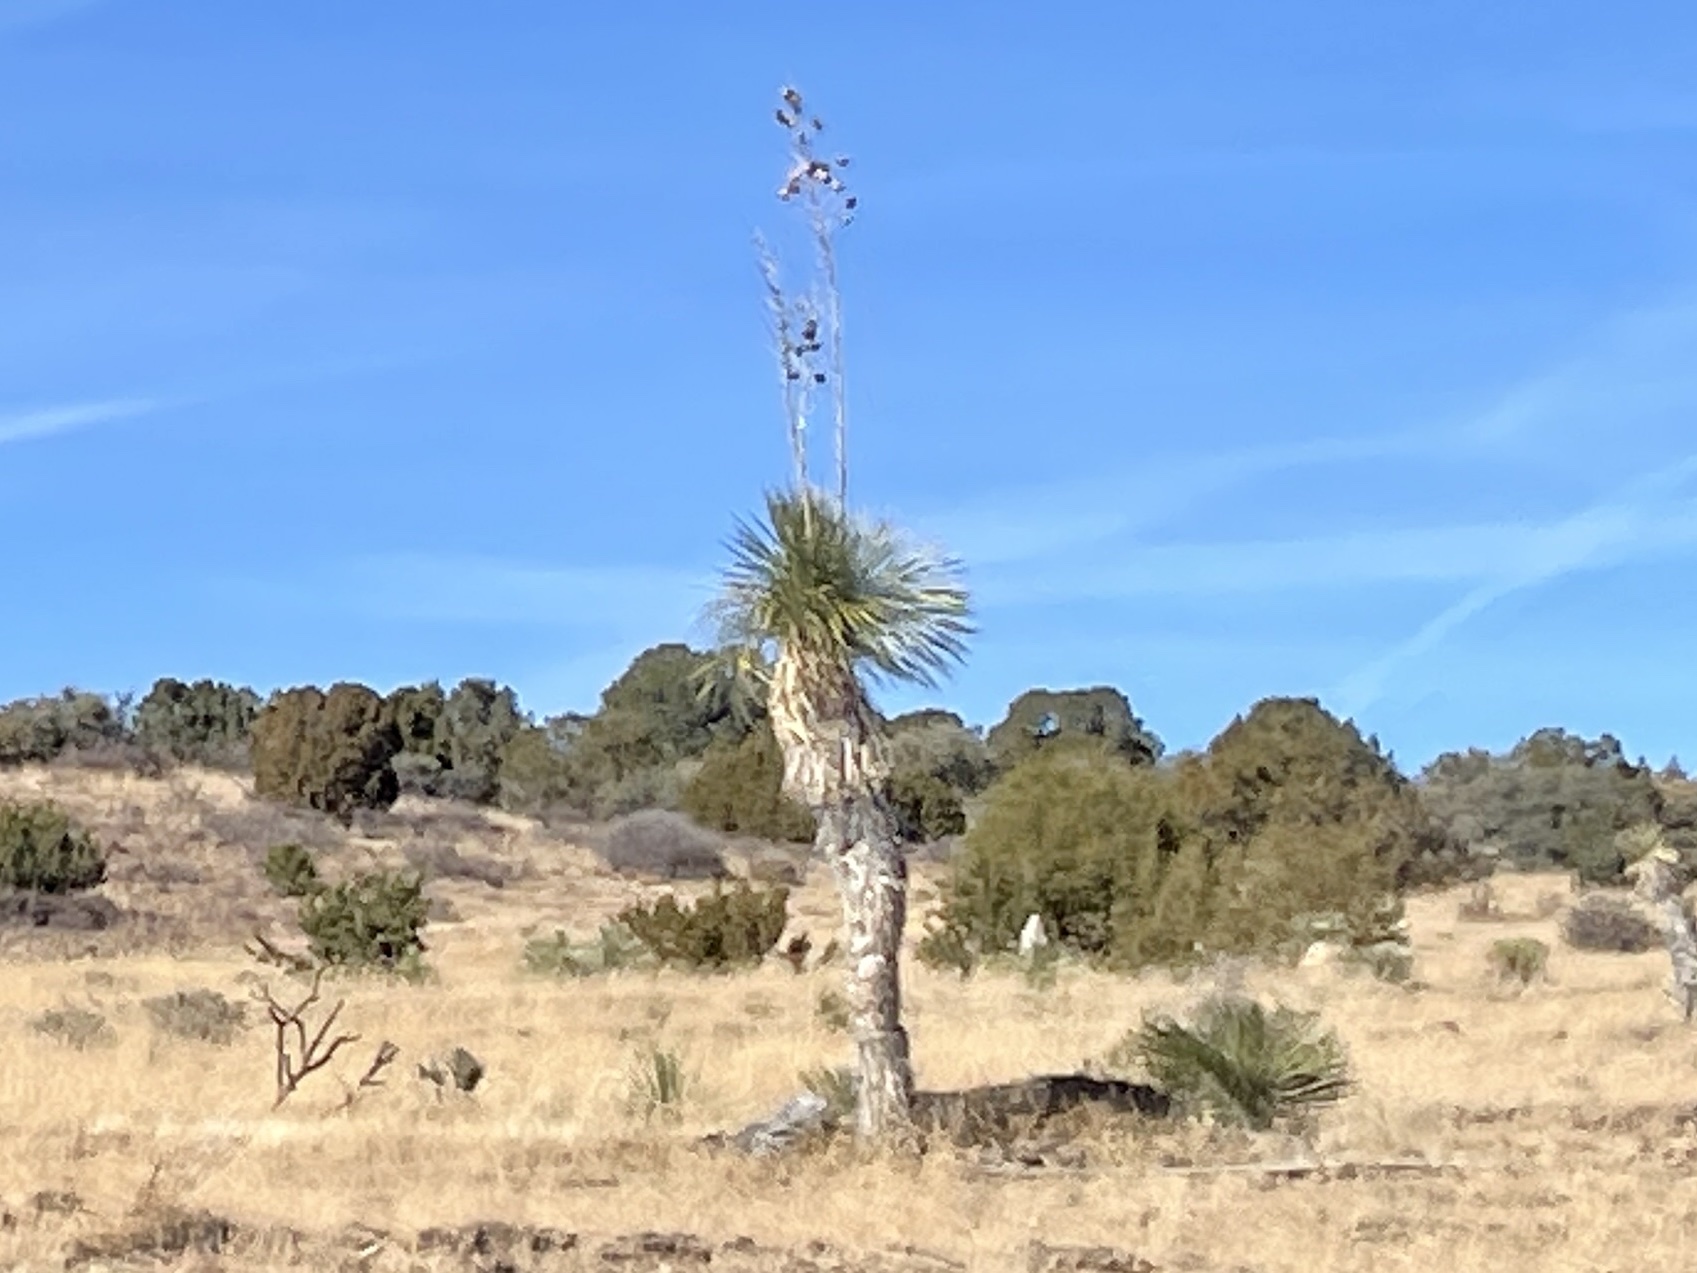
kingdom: Plantae
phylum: Tracheophyta
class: Liliopsida
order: Asparagales
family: Asparagaceae
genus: Yucca
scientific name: Yucca elata
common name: Palmella
